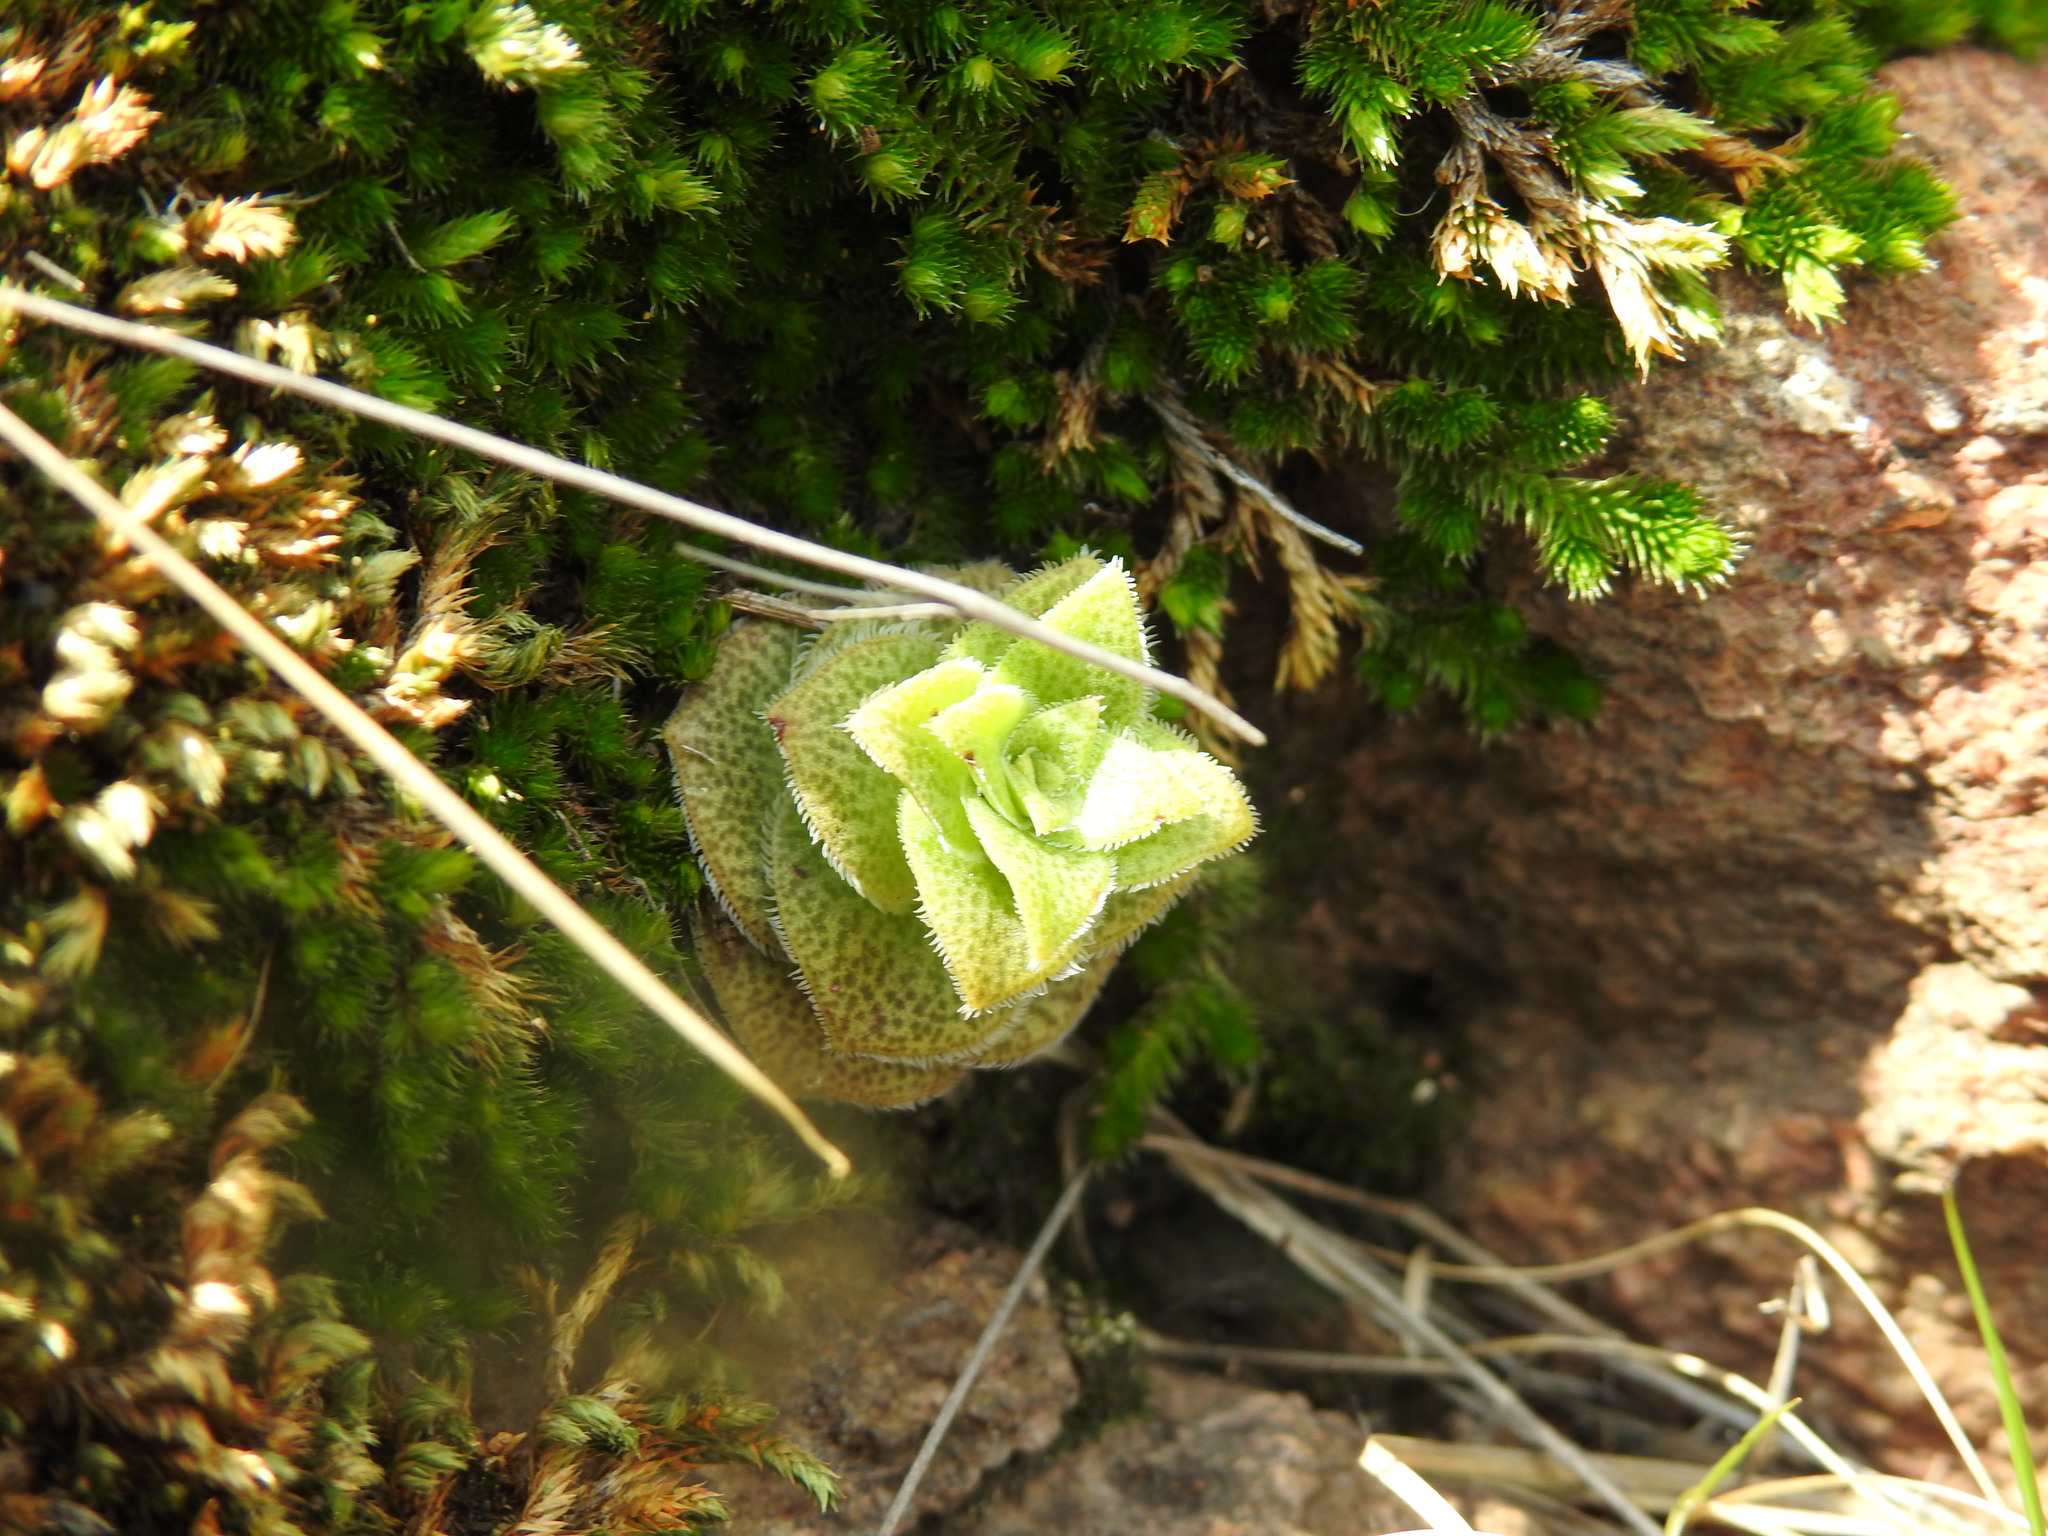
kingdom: Plantae
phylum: Tracheophyta
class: Magnoliopsida
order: Saxifragales
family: Crassulaceae
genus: Crassula
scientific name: Crassula setulosa
